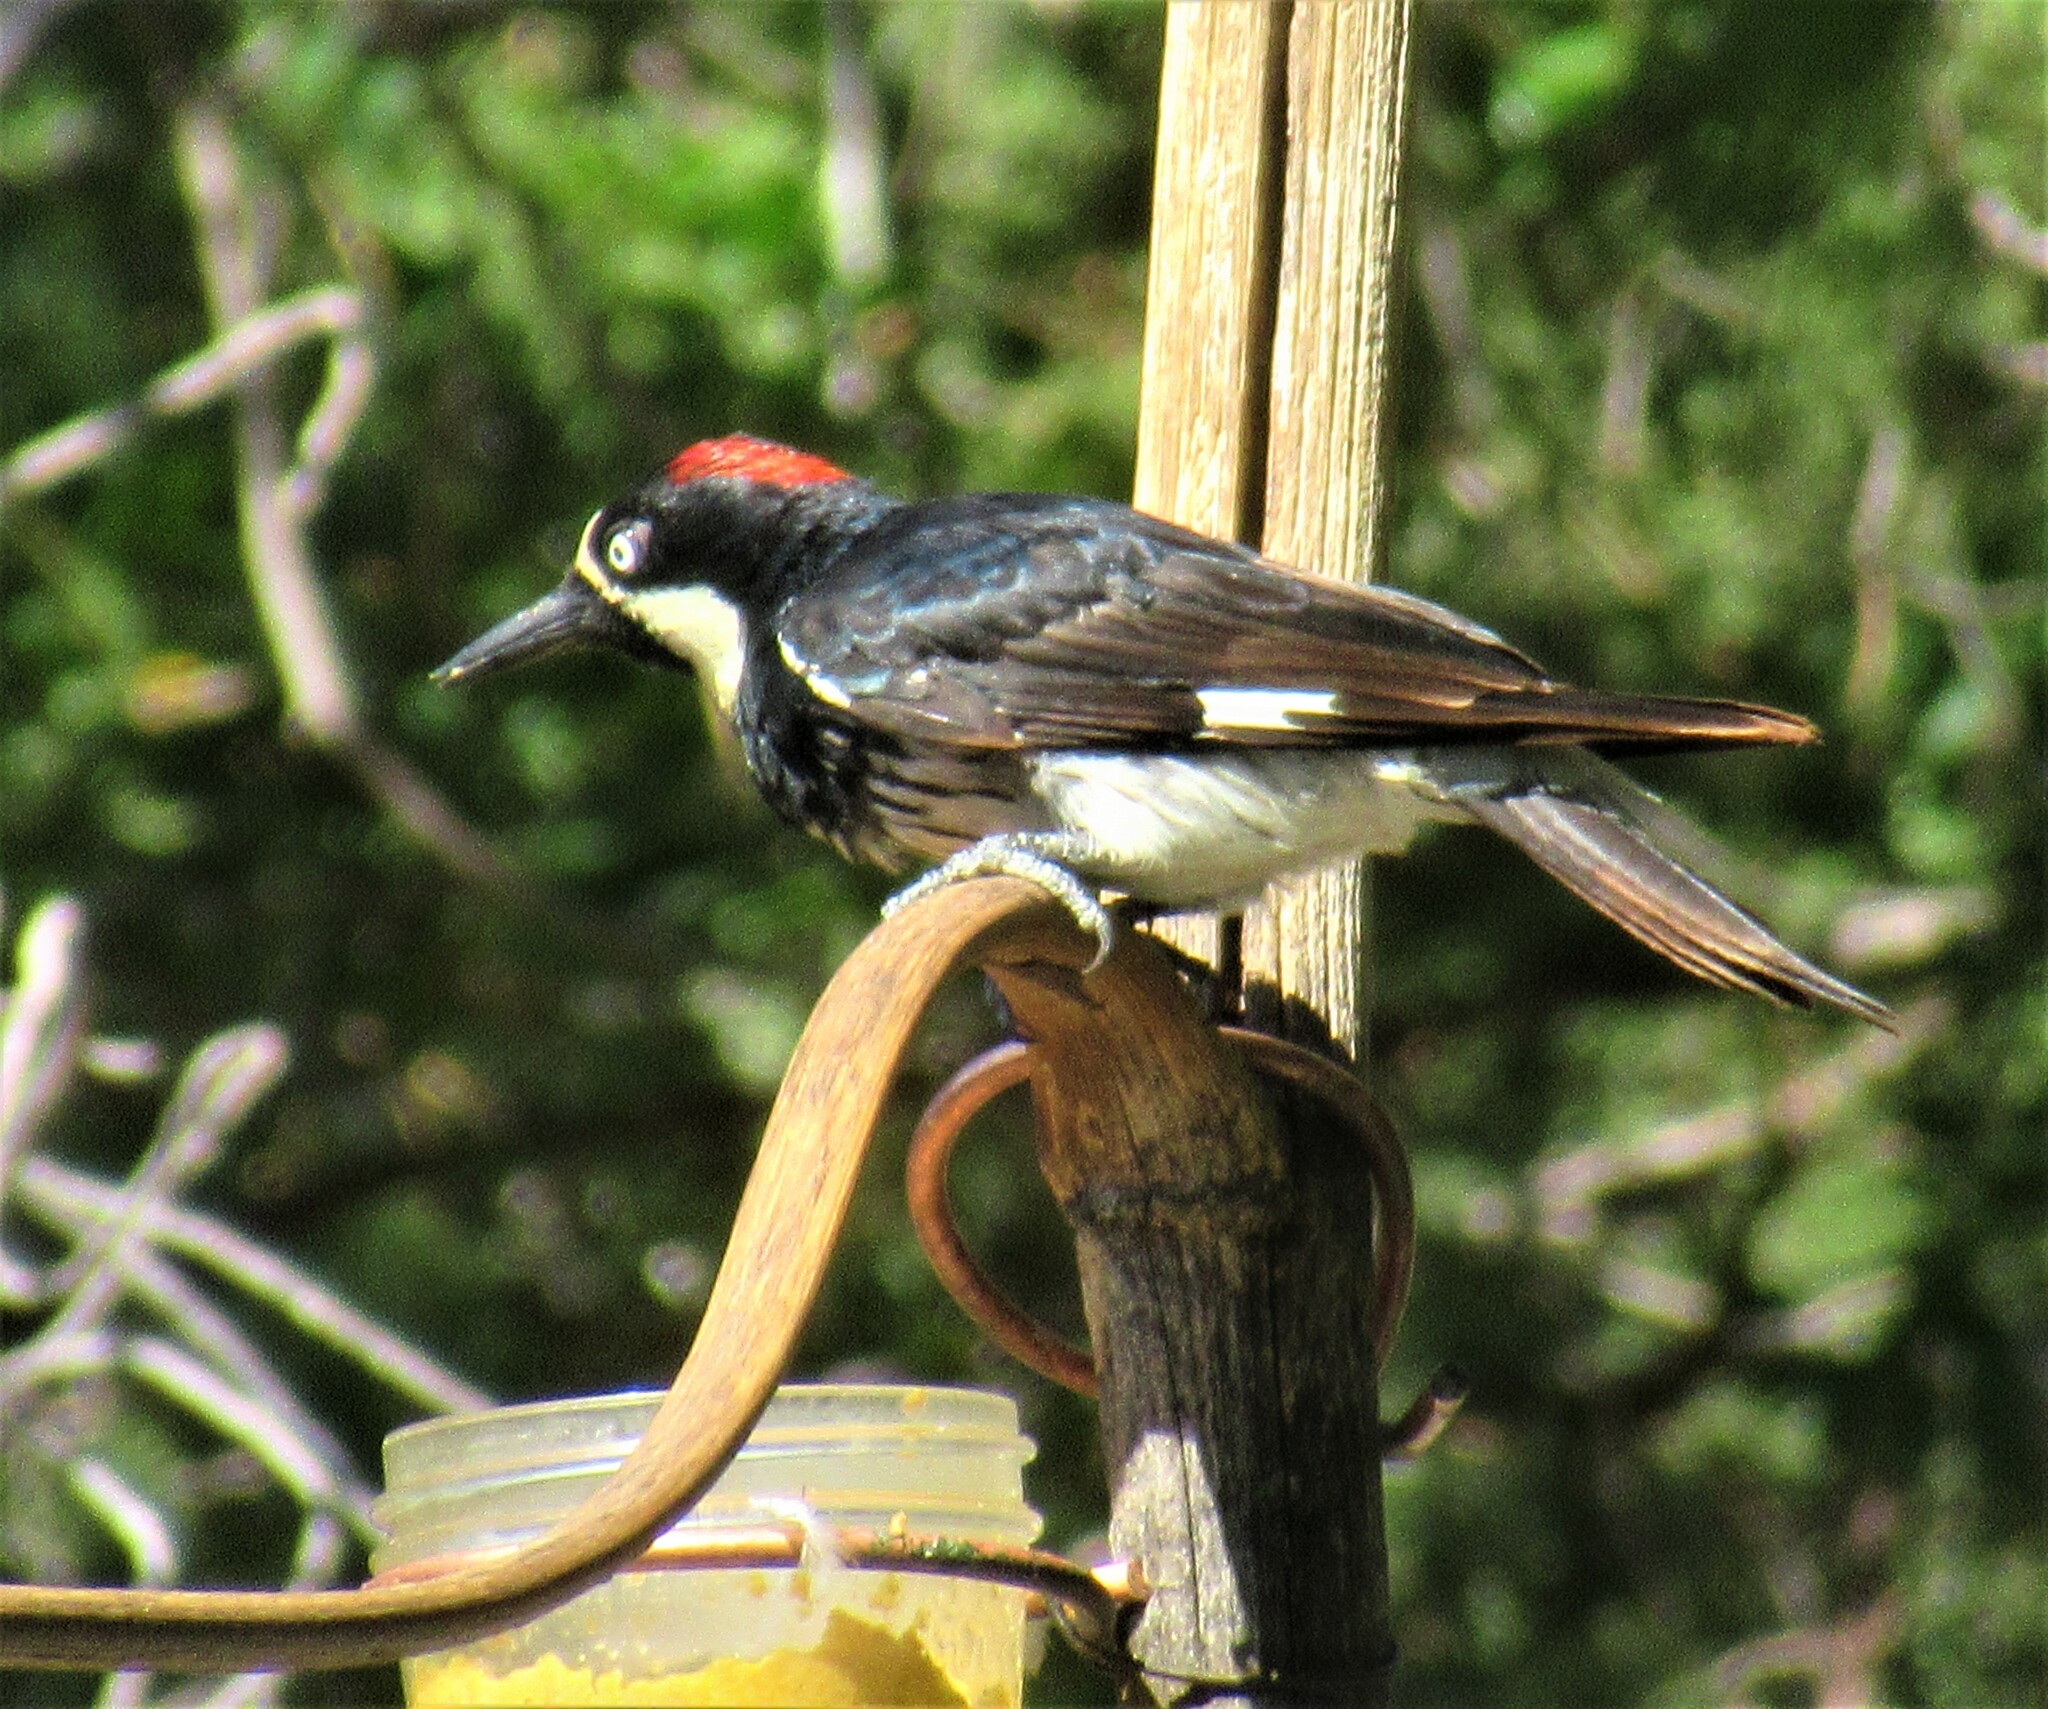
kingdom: Animalia
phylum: Chordata
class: Aves
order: Piciformes
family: Picidae
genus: Melanerpes
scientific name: Melanerpes formicivorus
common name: Acorn woodpecker
